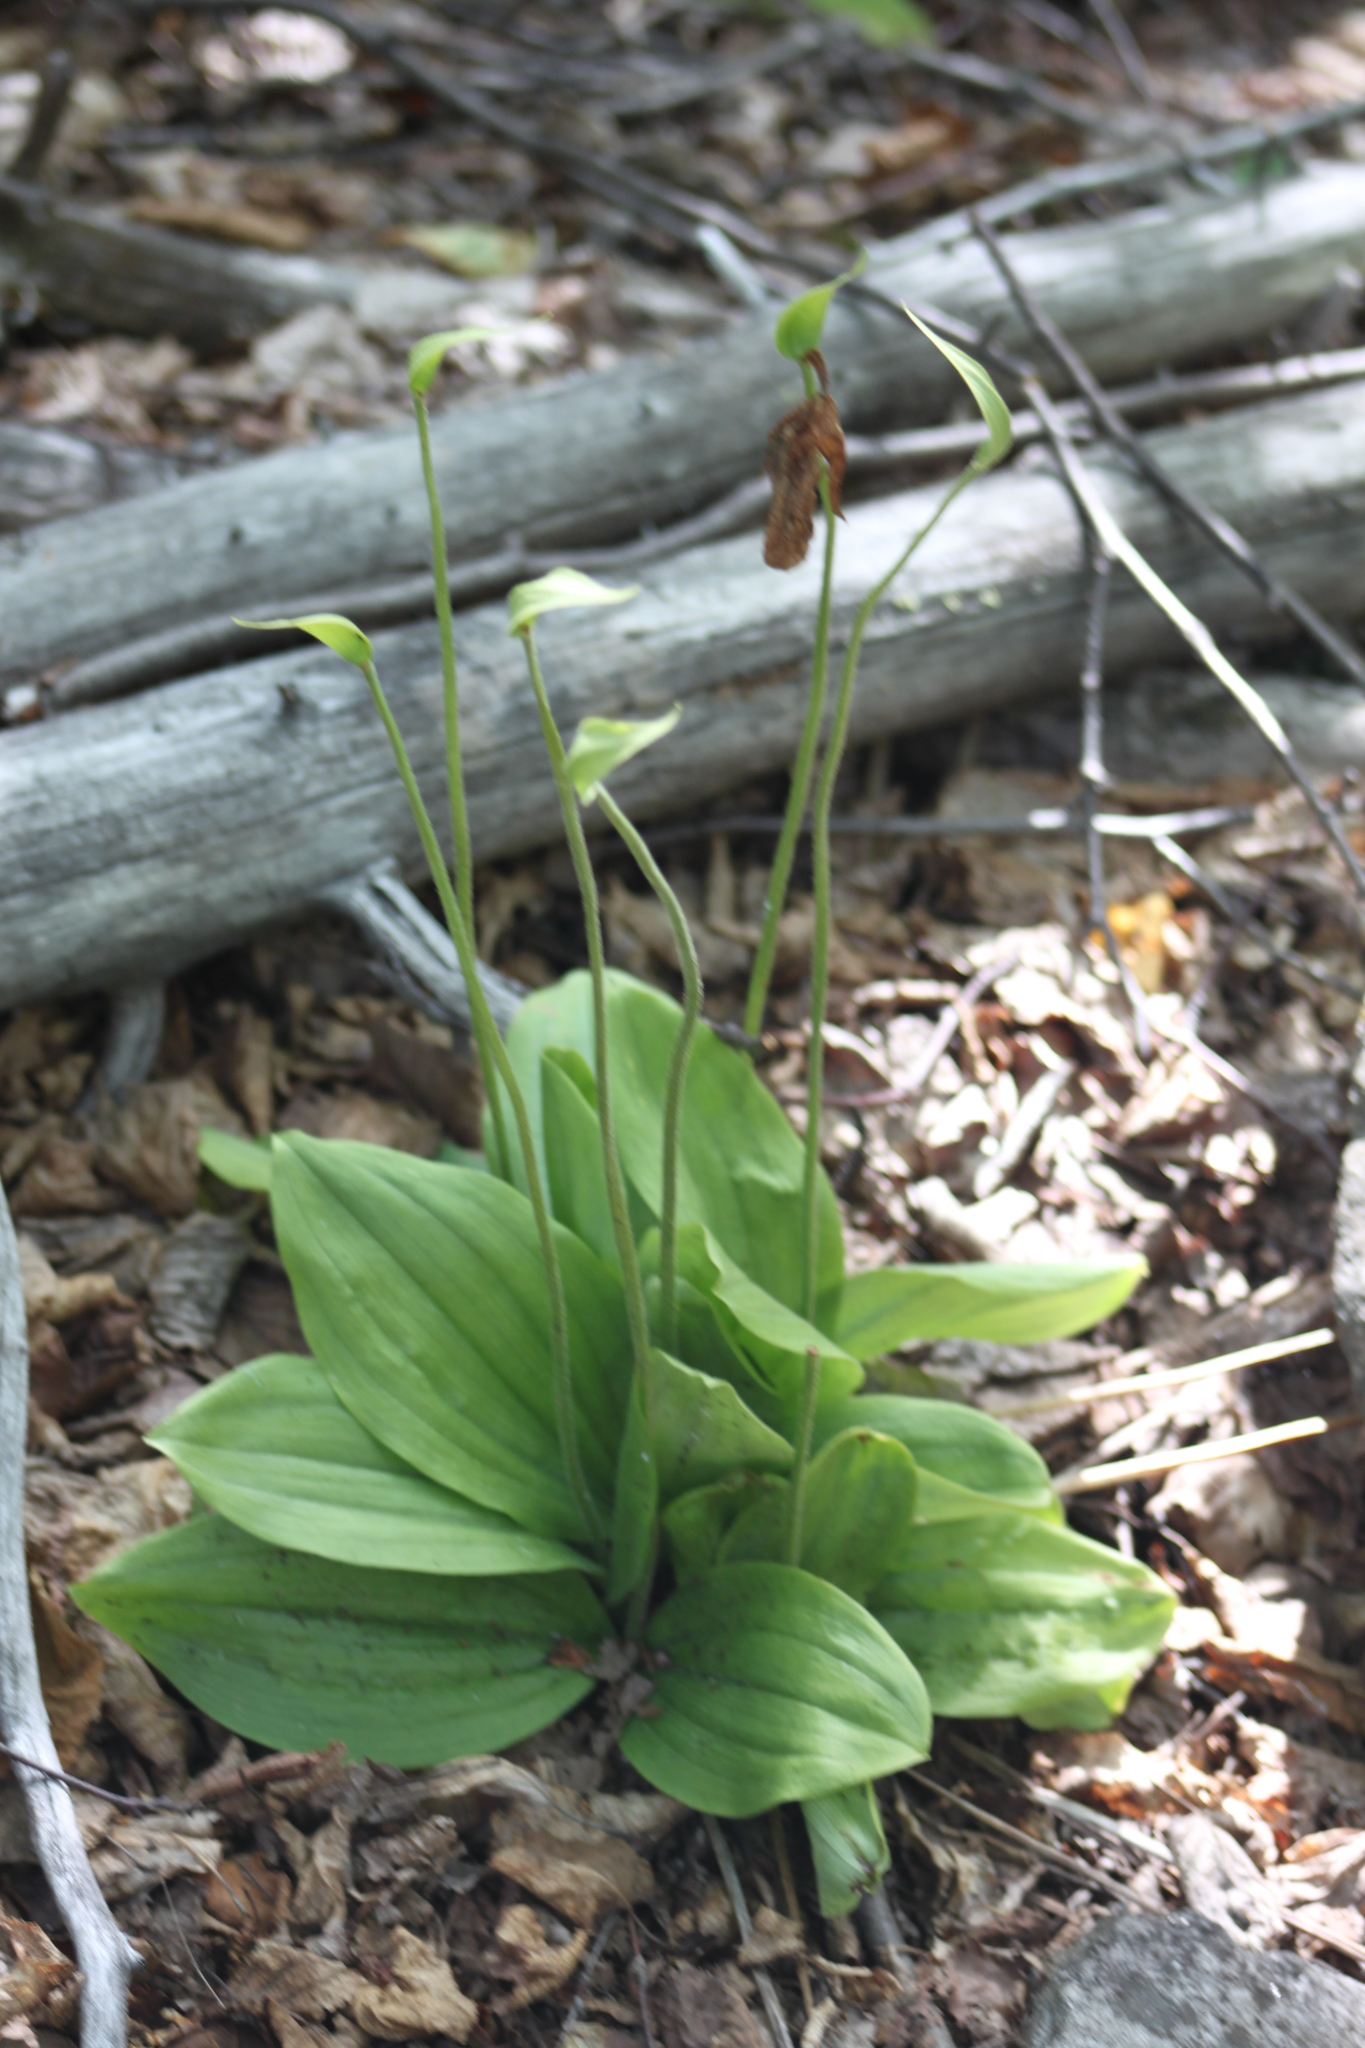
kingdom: Plantae
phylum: Tracheophyta
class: Liliopsida
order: Asparagales
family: Orchidaceae
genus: Cypripedium
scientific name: Cypripedium acaule
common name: Pink lady's-slipper
